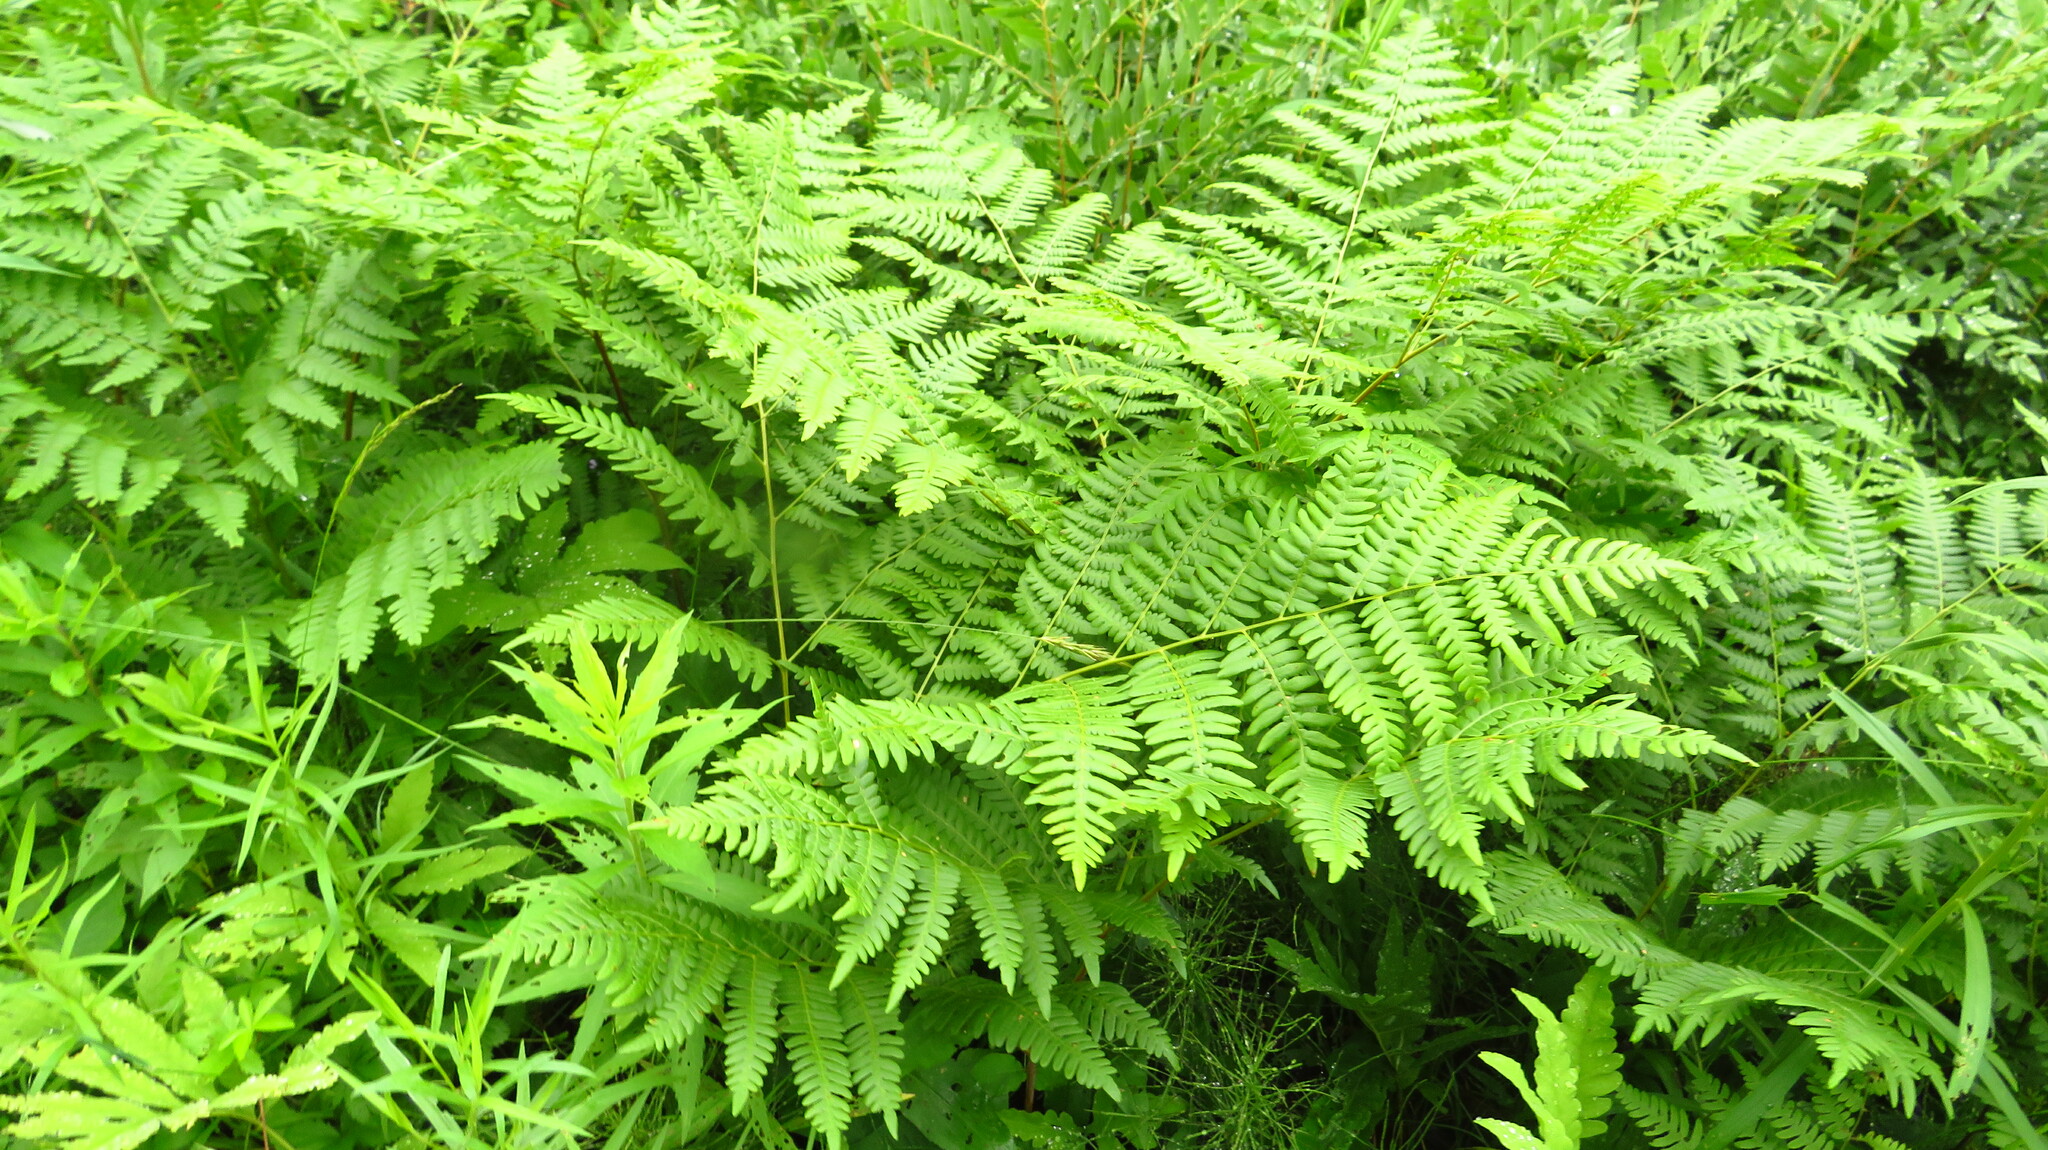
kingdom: Plantae
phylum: Tracheophyta
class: Polypodiopsida
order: Polypodiales
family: Dennstaedtiaceae
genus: Pteridium
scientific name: Pteridium aquilinum
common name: Bracken
